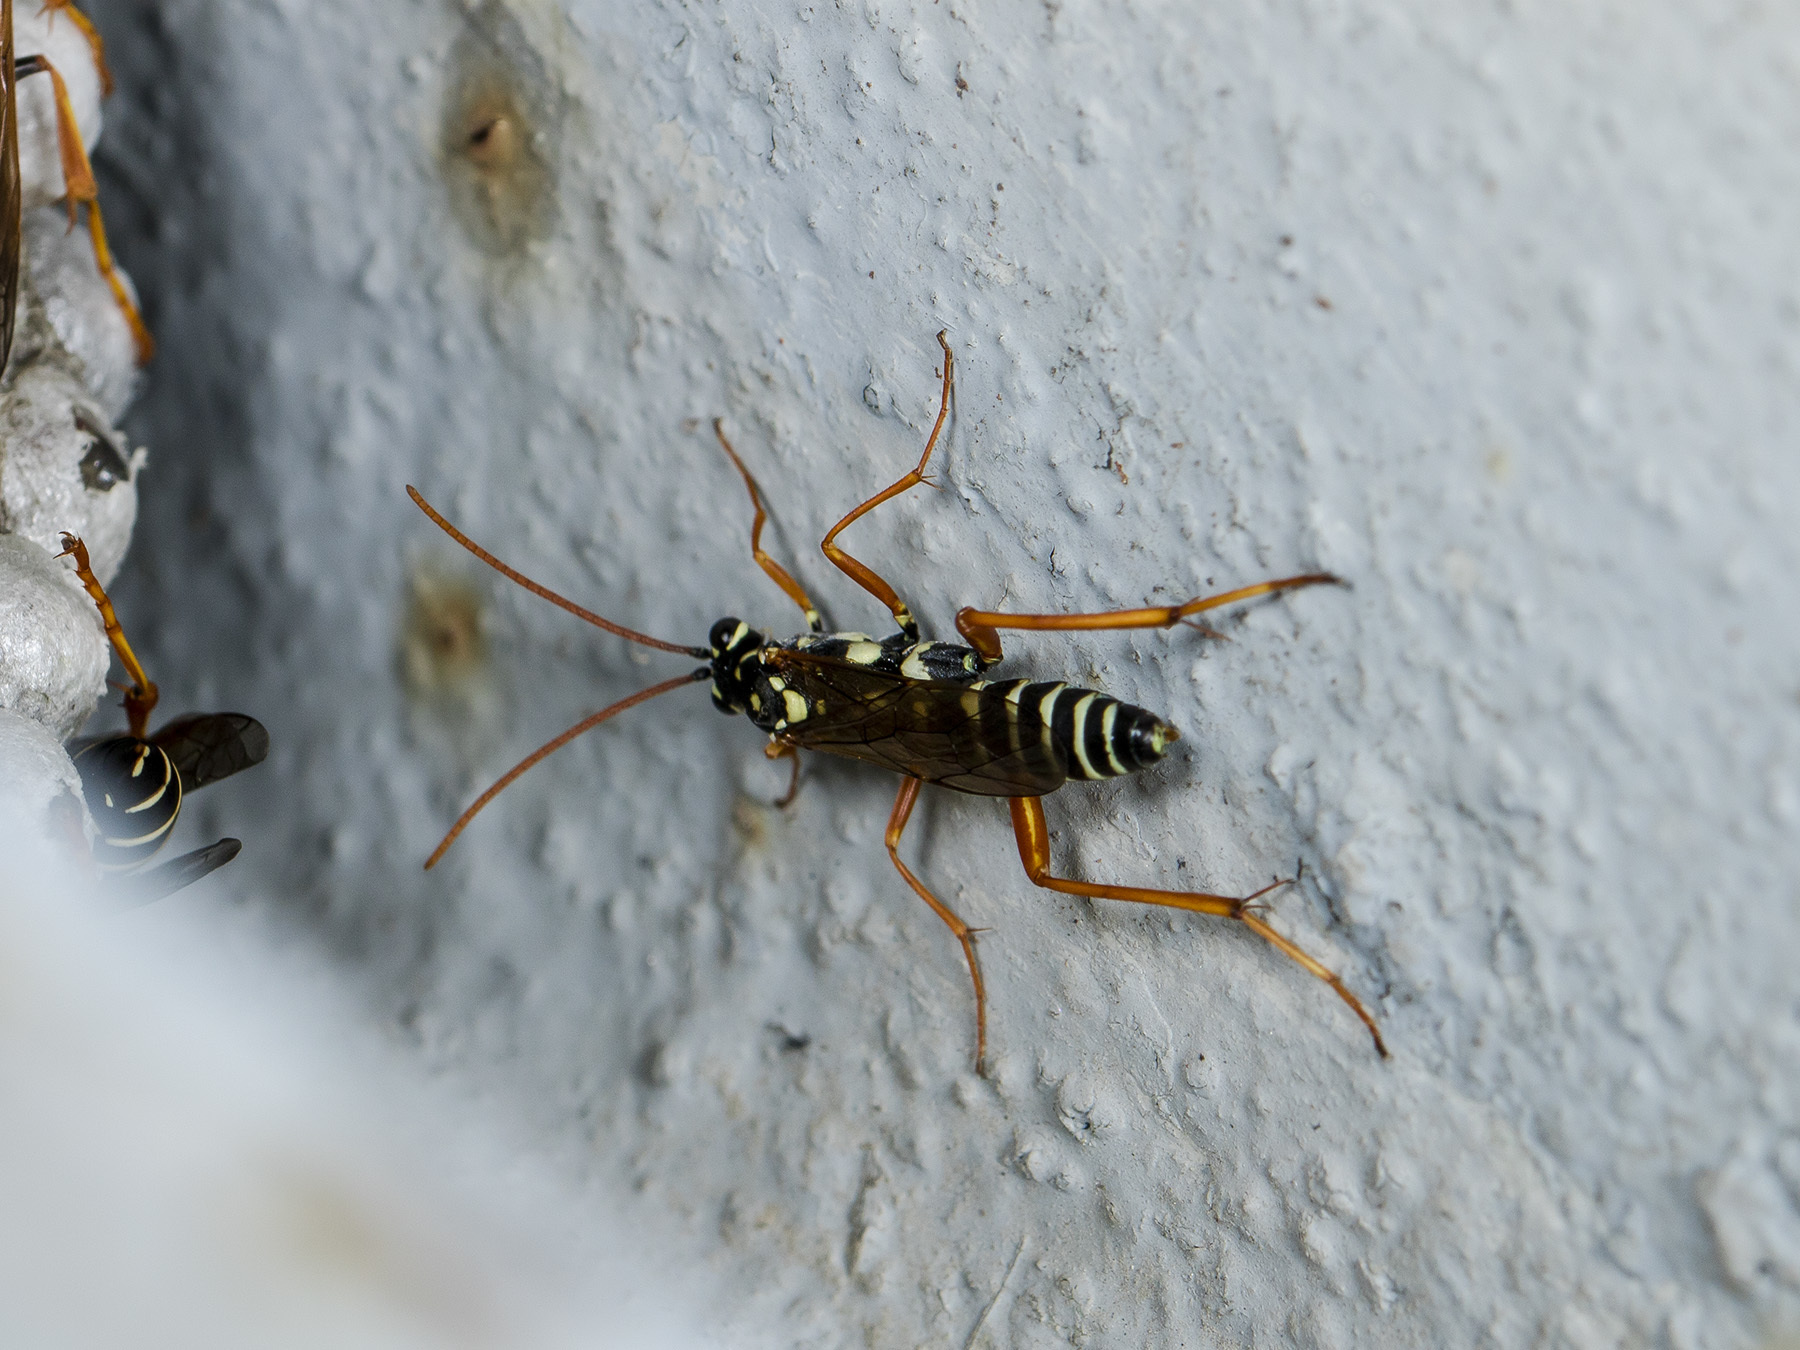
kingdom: Animalia
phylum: Arthropoda
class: Insecta
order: Hymenoptera
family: Ichneumonidae
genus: Latibulus
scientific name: Latibulus argiolus
